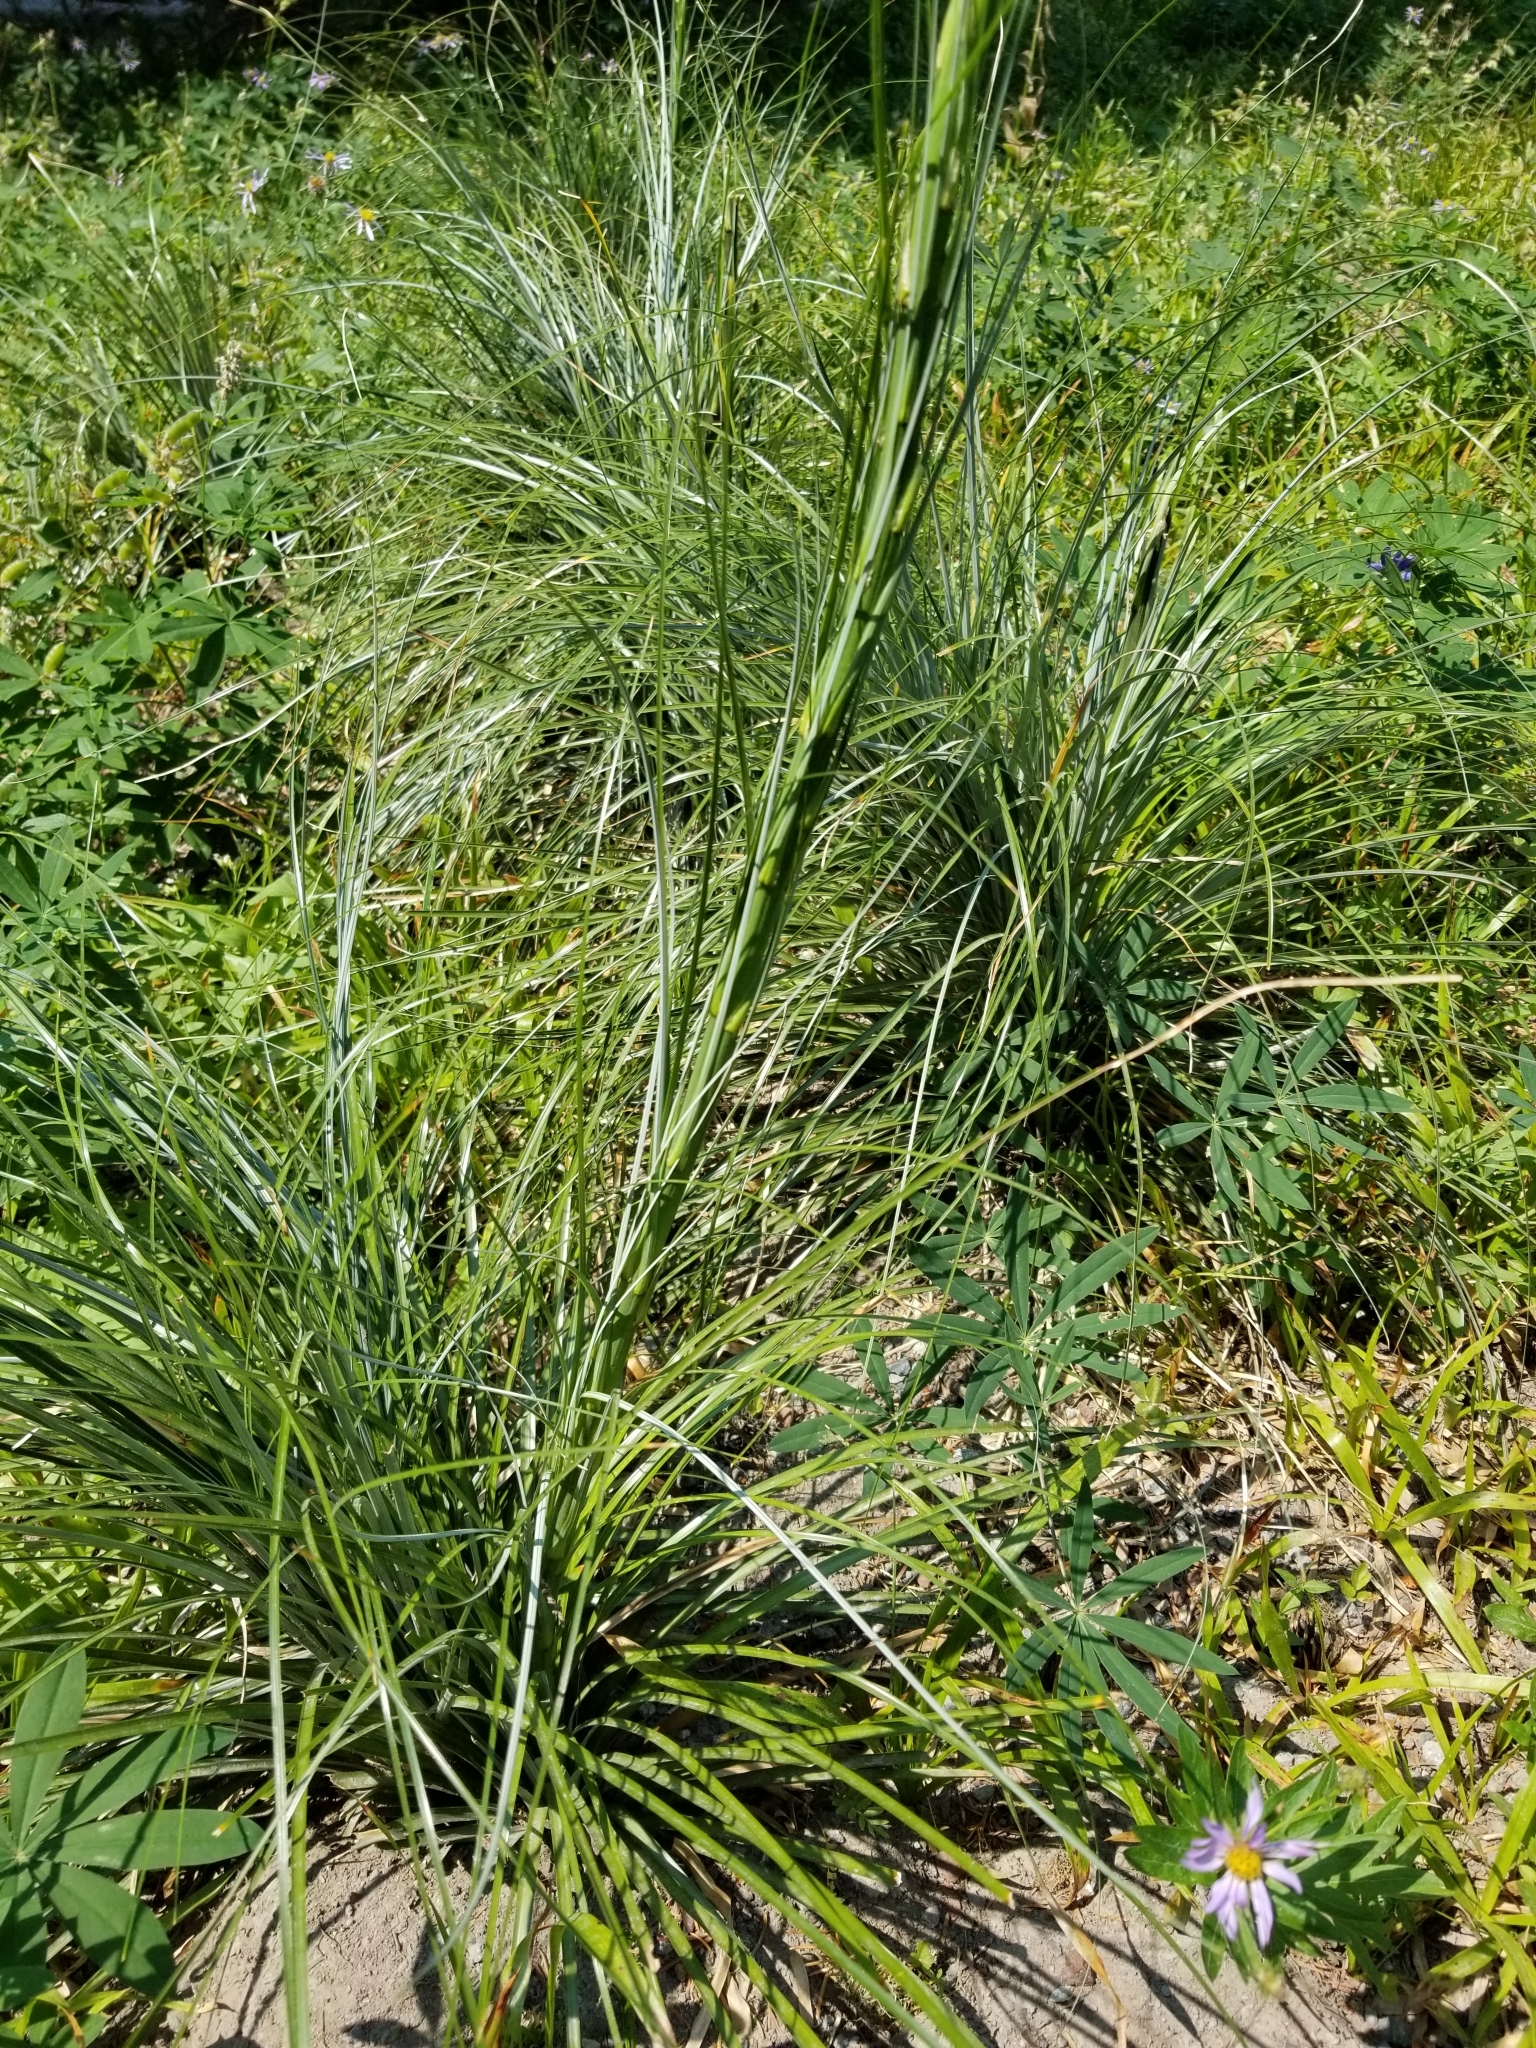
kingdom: Plantae
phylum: Tracheophyta
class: Liliopsida
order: Liliales
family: Melanthiaceae
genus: Xerophyllum
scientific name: Xerophyllum tenax
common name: Bear-grass
